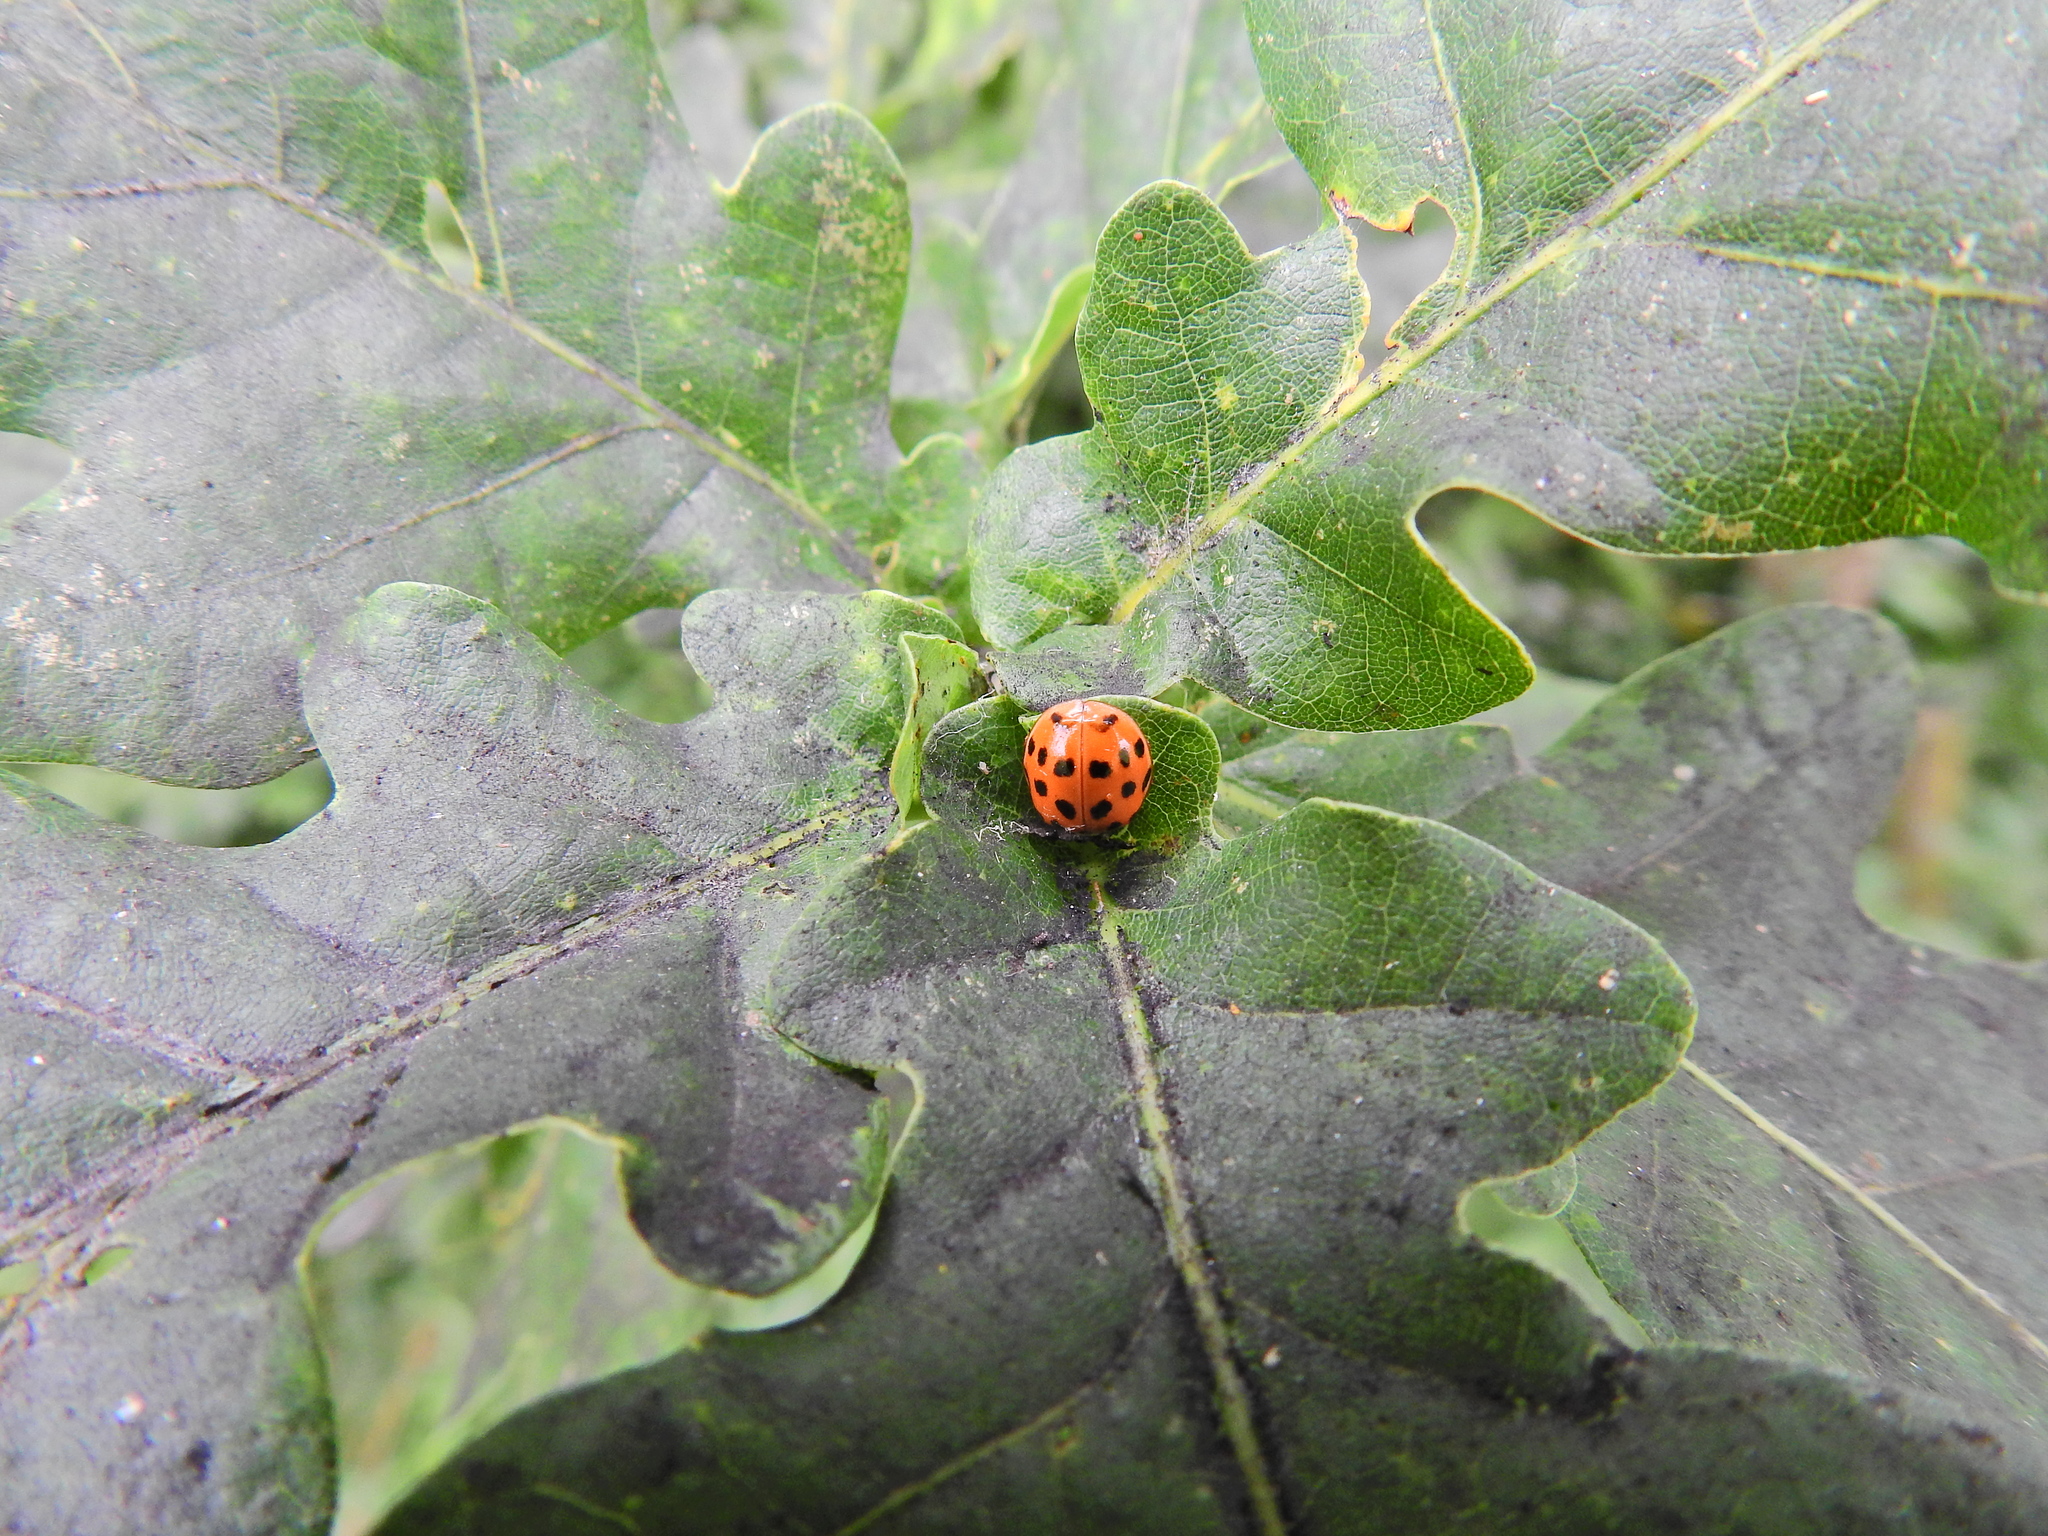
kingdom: Animalia
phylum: Arthropoda
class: Insecta
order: Coleoptera
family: Coccinellidae
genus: Harmonia
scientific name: Harmonia axyridis
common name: Harlequin ladybird
